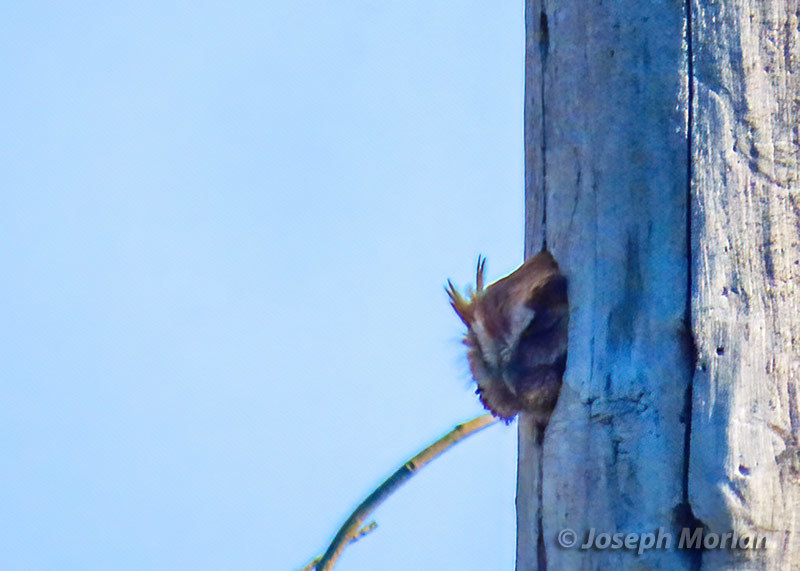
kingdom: Animalia
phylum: Chordata
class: Aves
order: Strigiformes
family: Strigidae
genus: Megascops
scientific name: Megascops asio
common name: Eastern screech-owl
